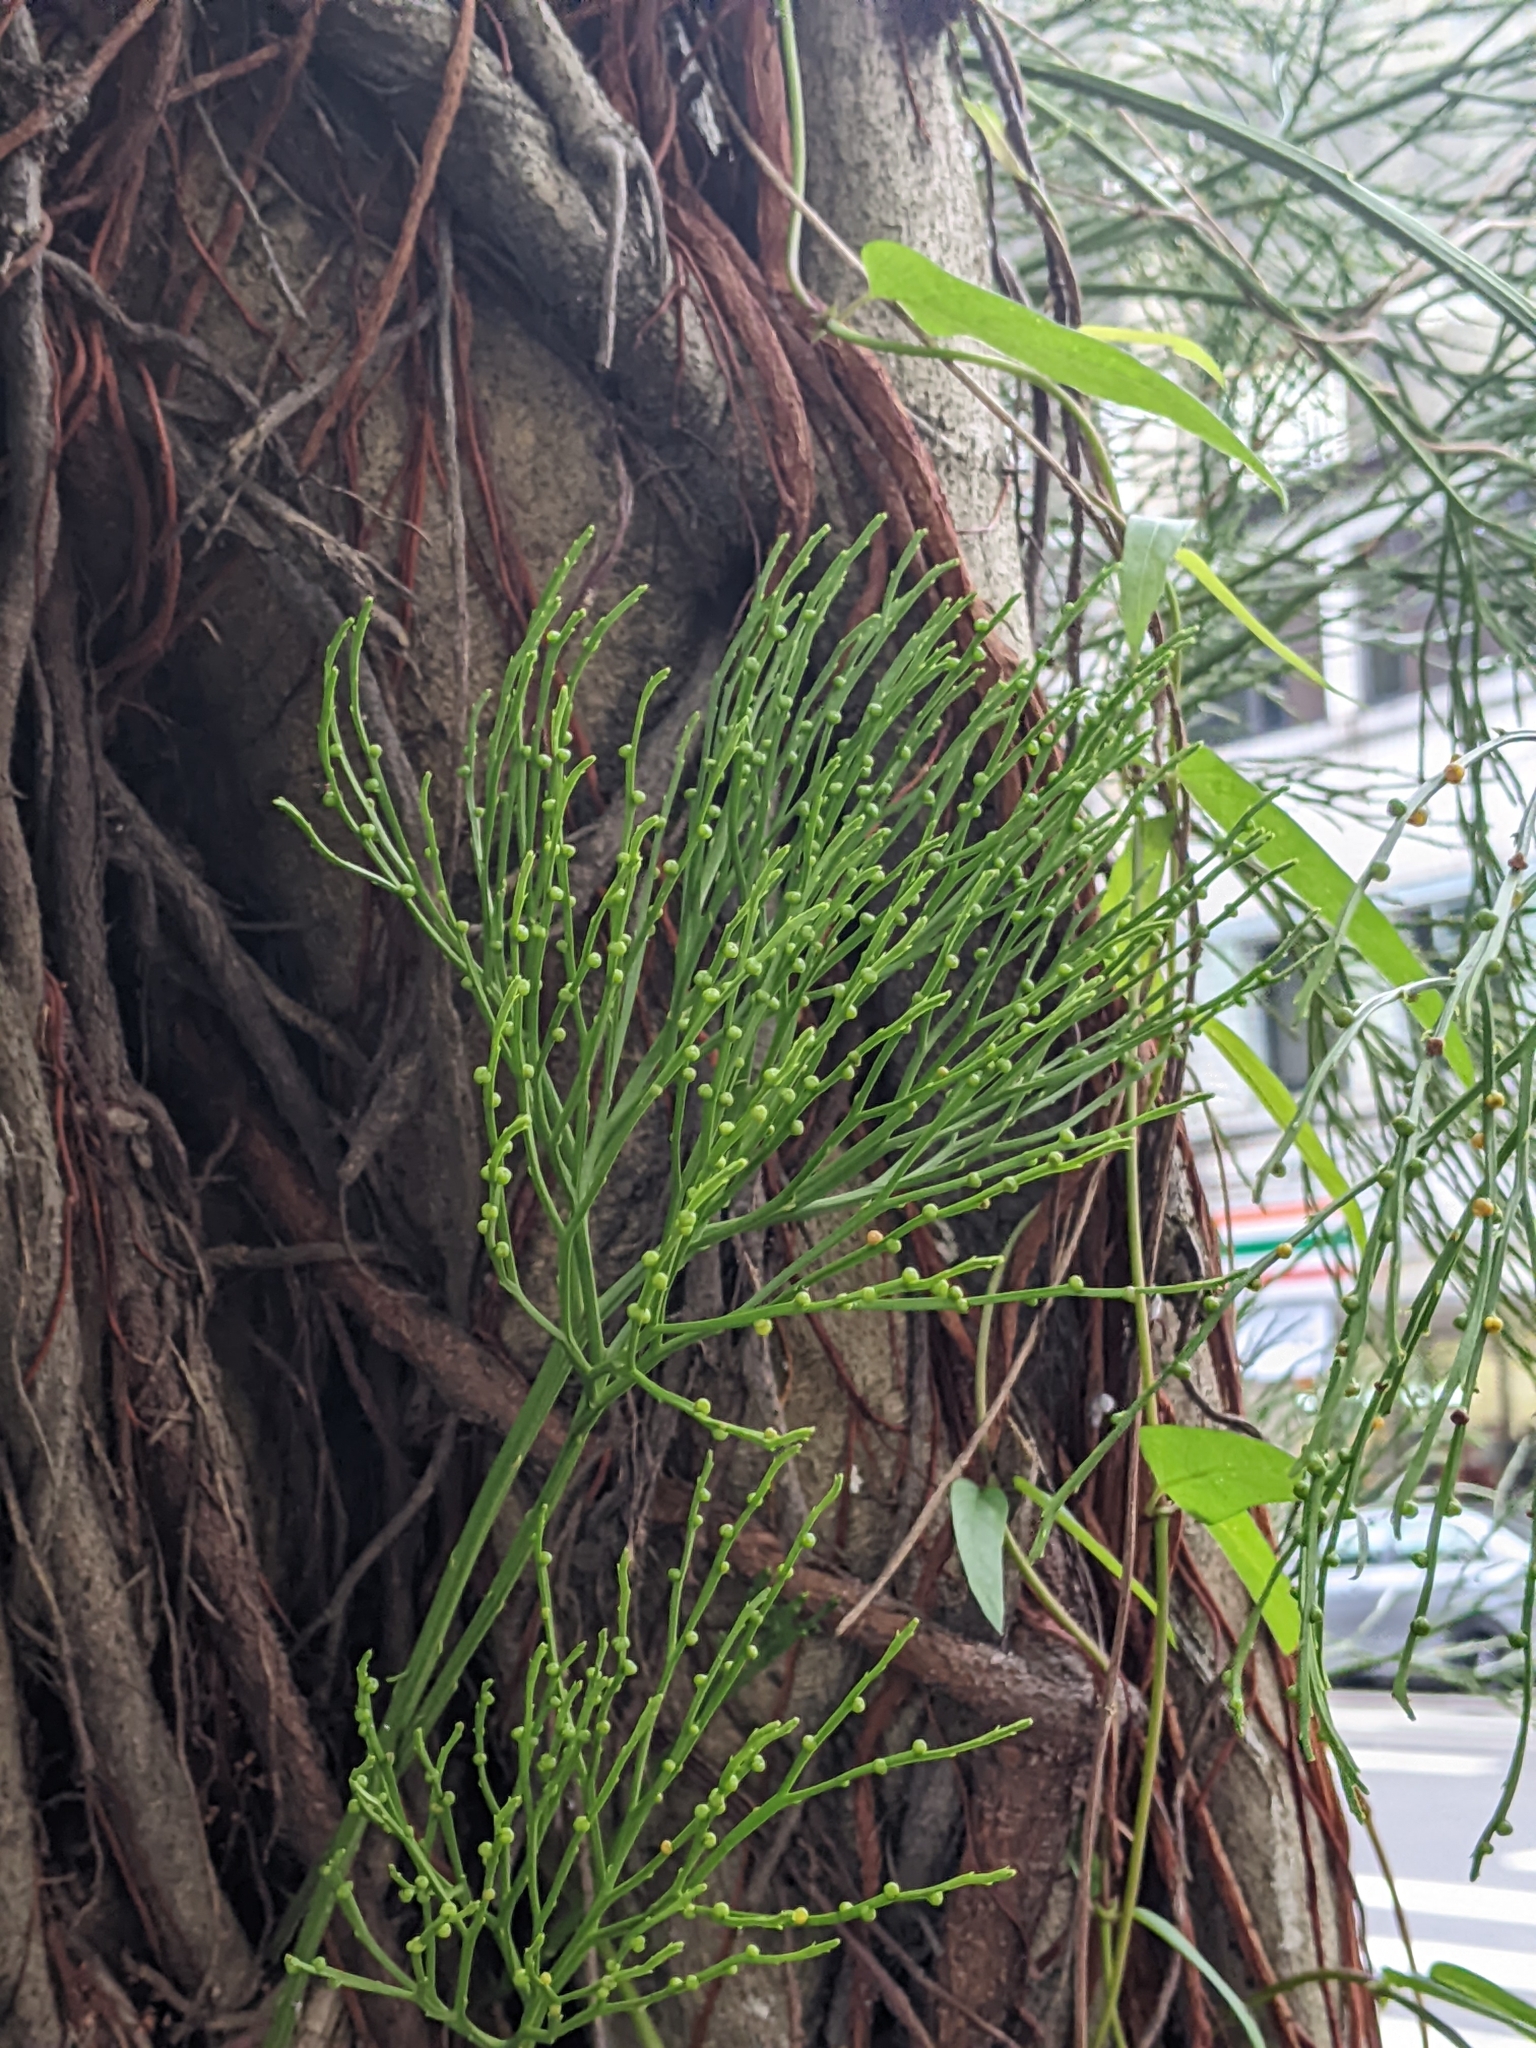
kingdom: Plantae
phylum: Tracheophyta
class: Polypodiopsida
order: Psilotales
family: Psilotaceae
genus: Psilotum
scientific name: Psilotum nudum
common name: Skeleton fork fern
